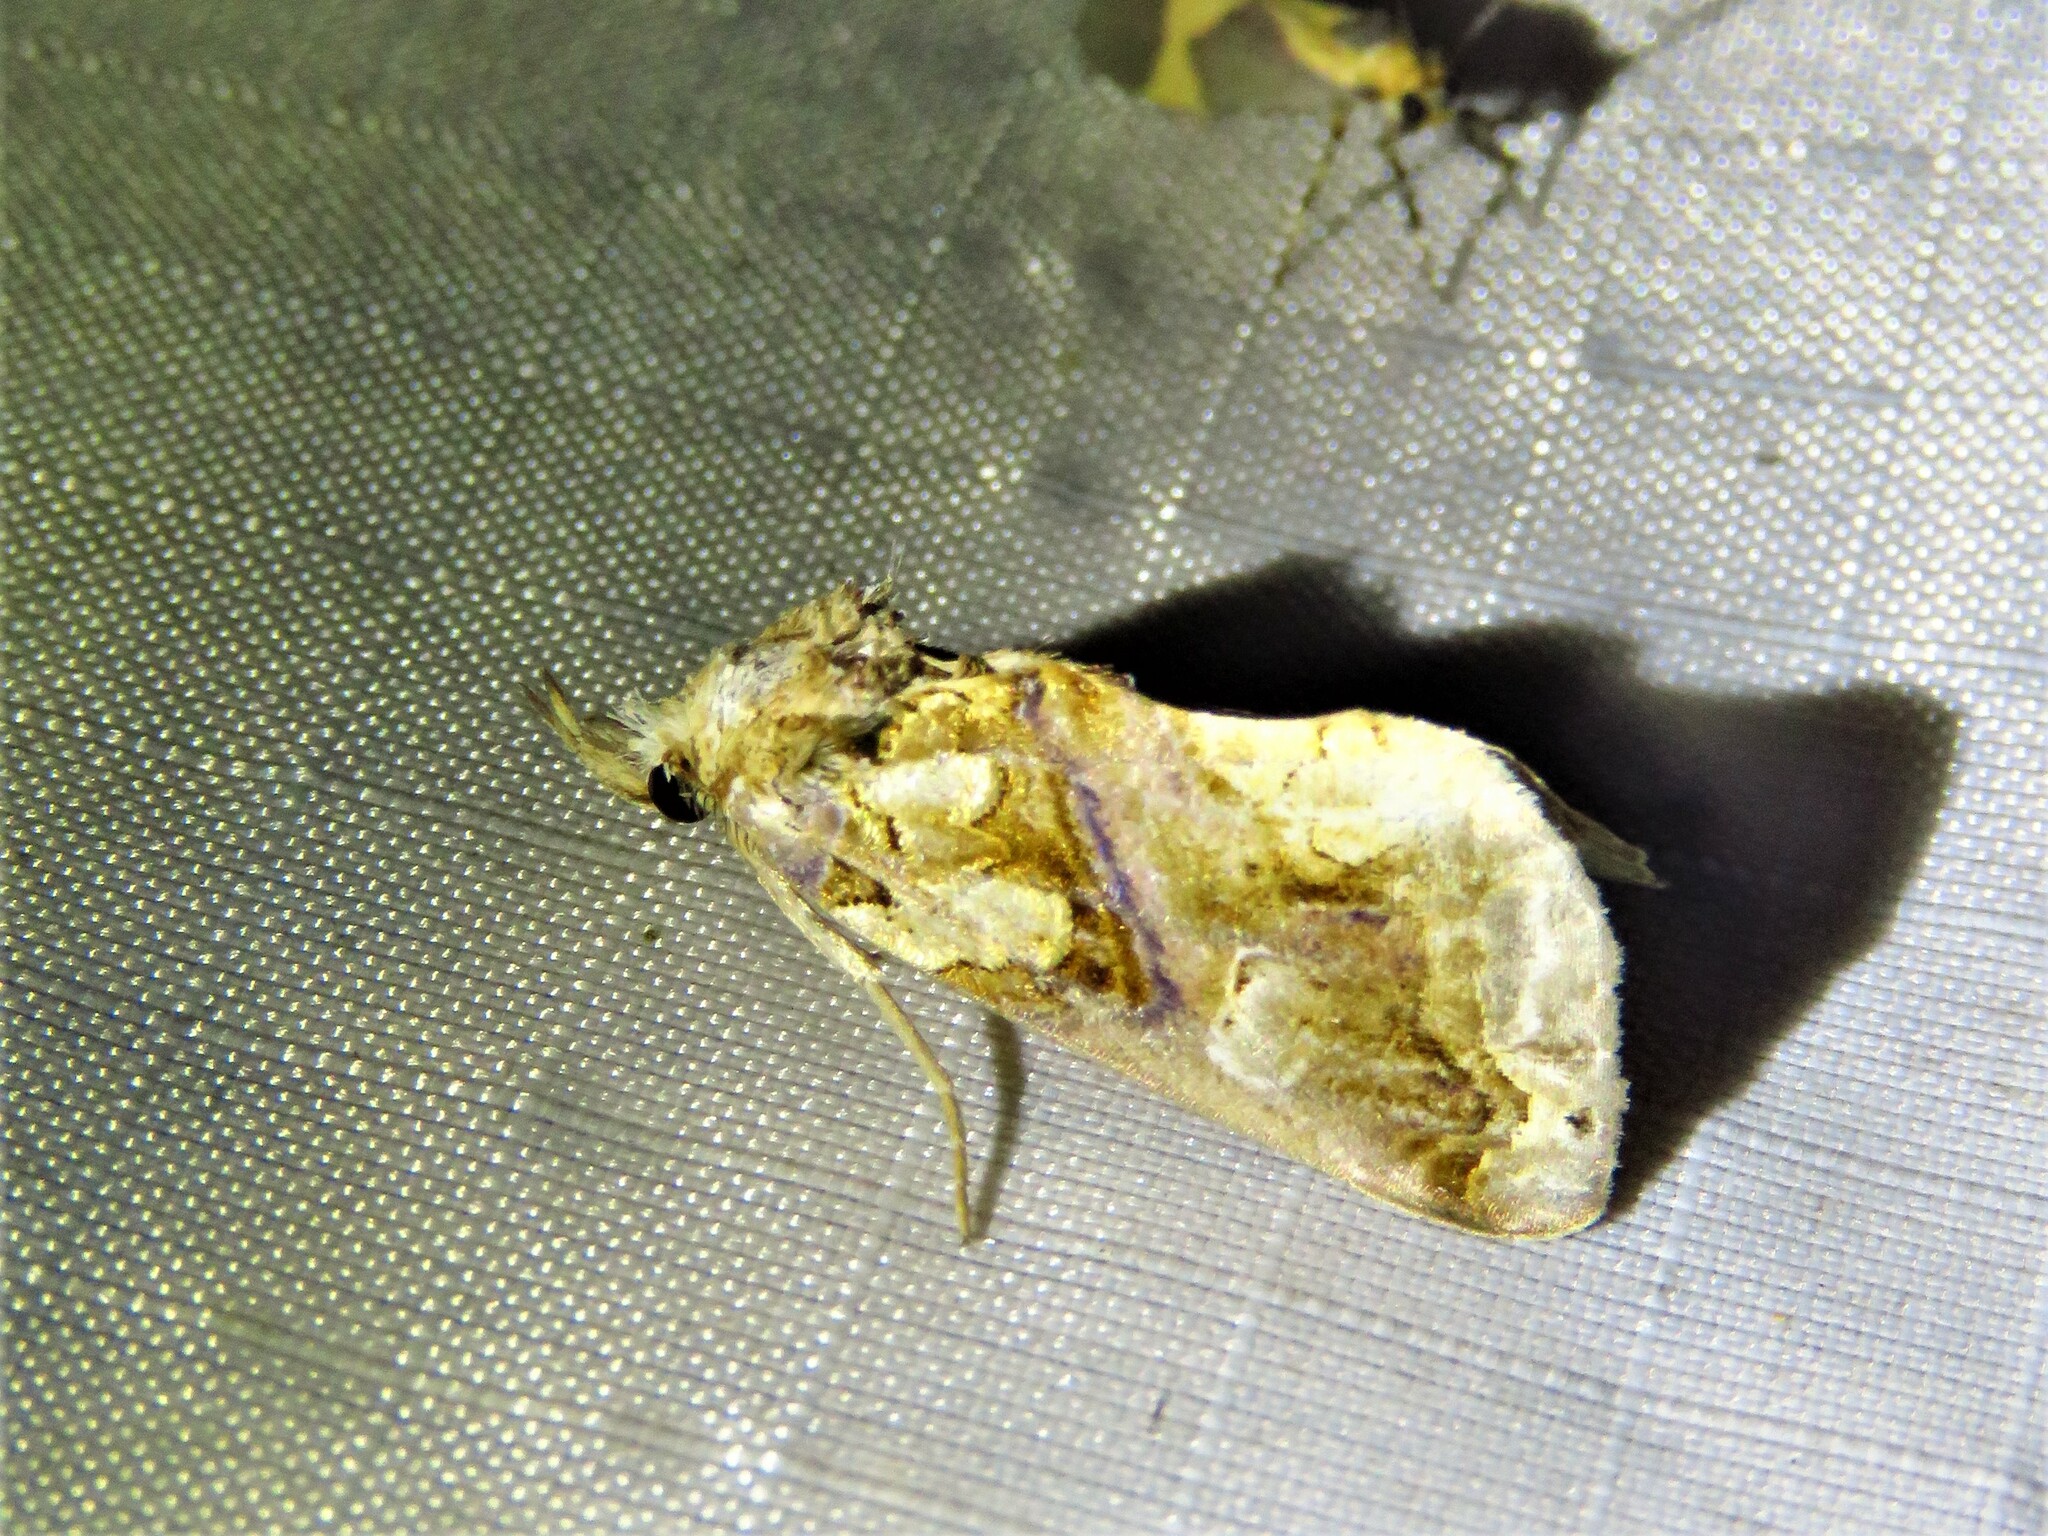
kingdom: Animalia
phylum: Arthropoda
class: Insecta
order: Lepidoptera
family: Erebidae
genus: Plusiodonta
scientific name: Plusiodonta compressipalpis
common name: Moonseed moth
